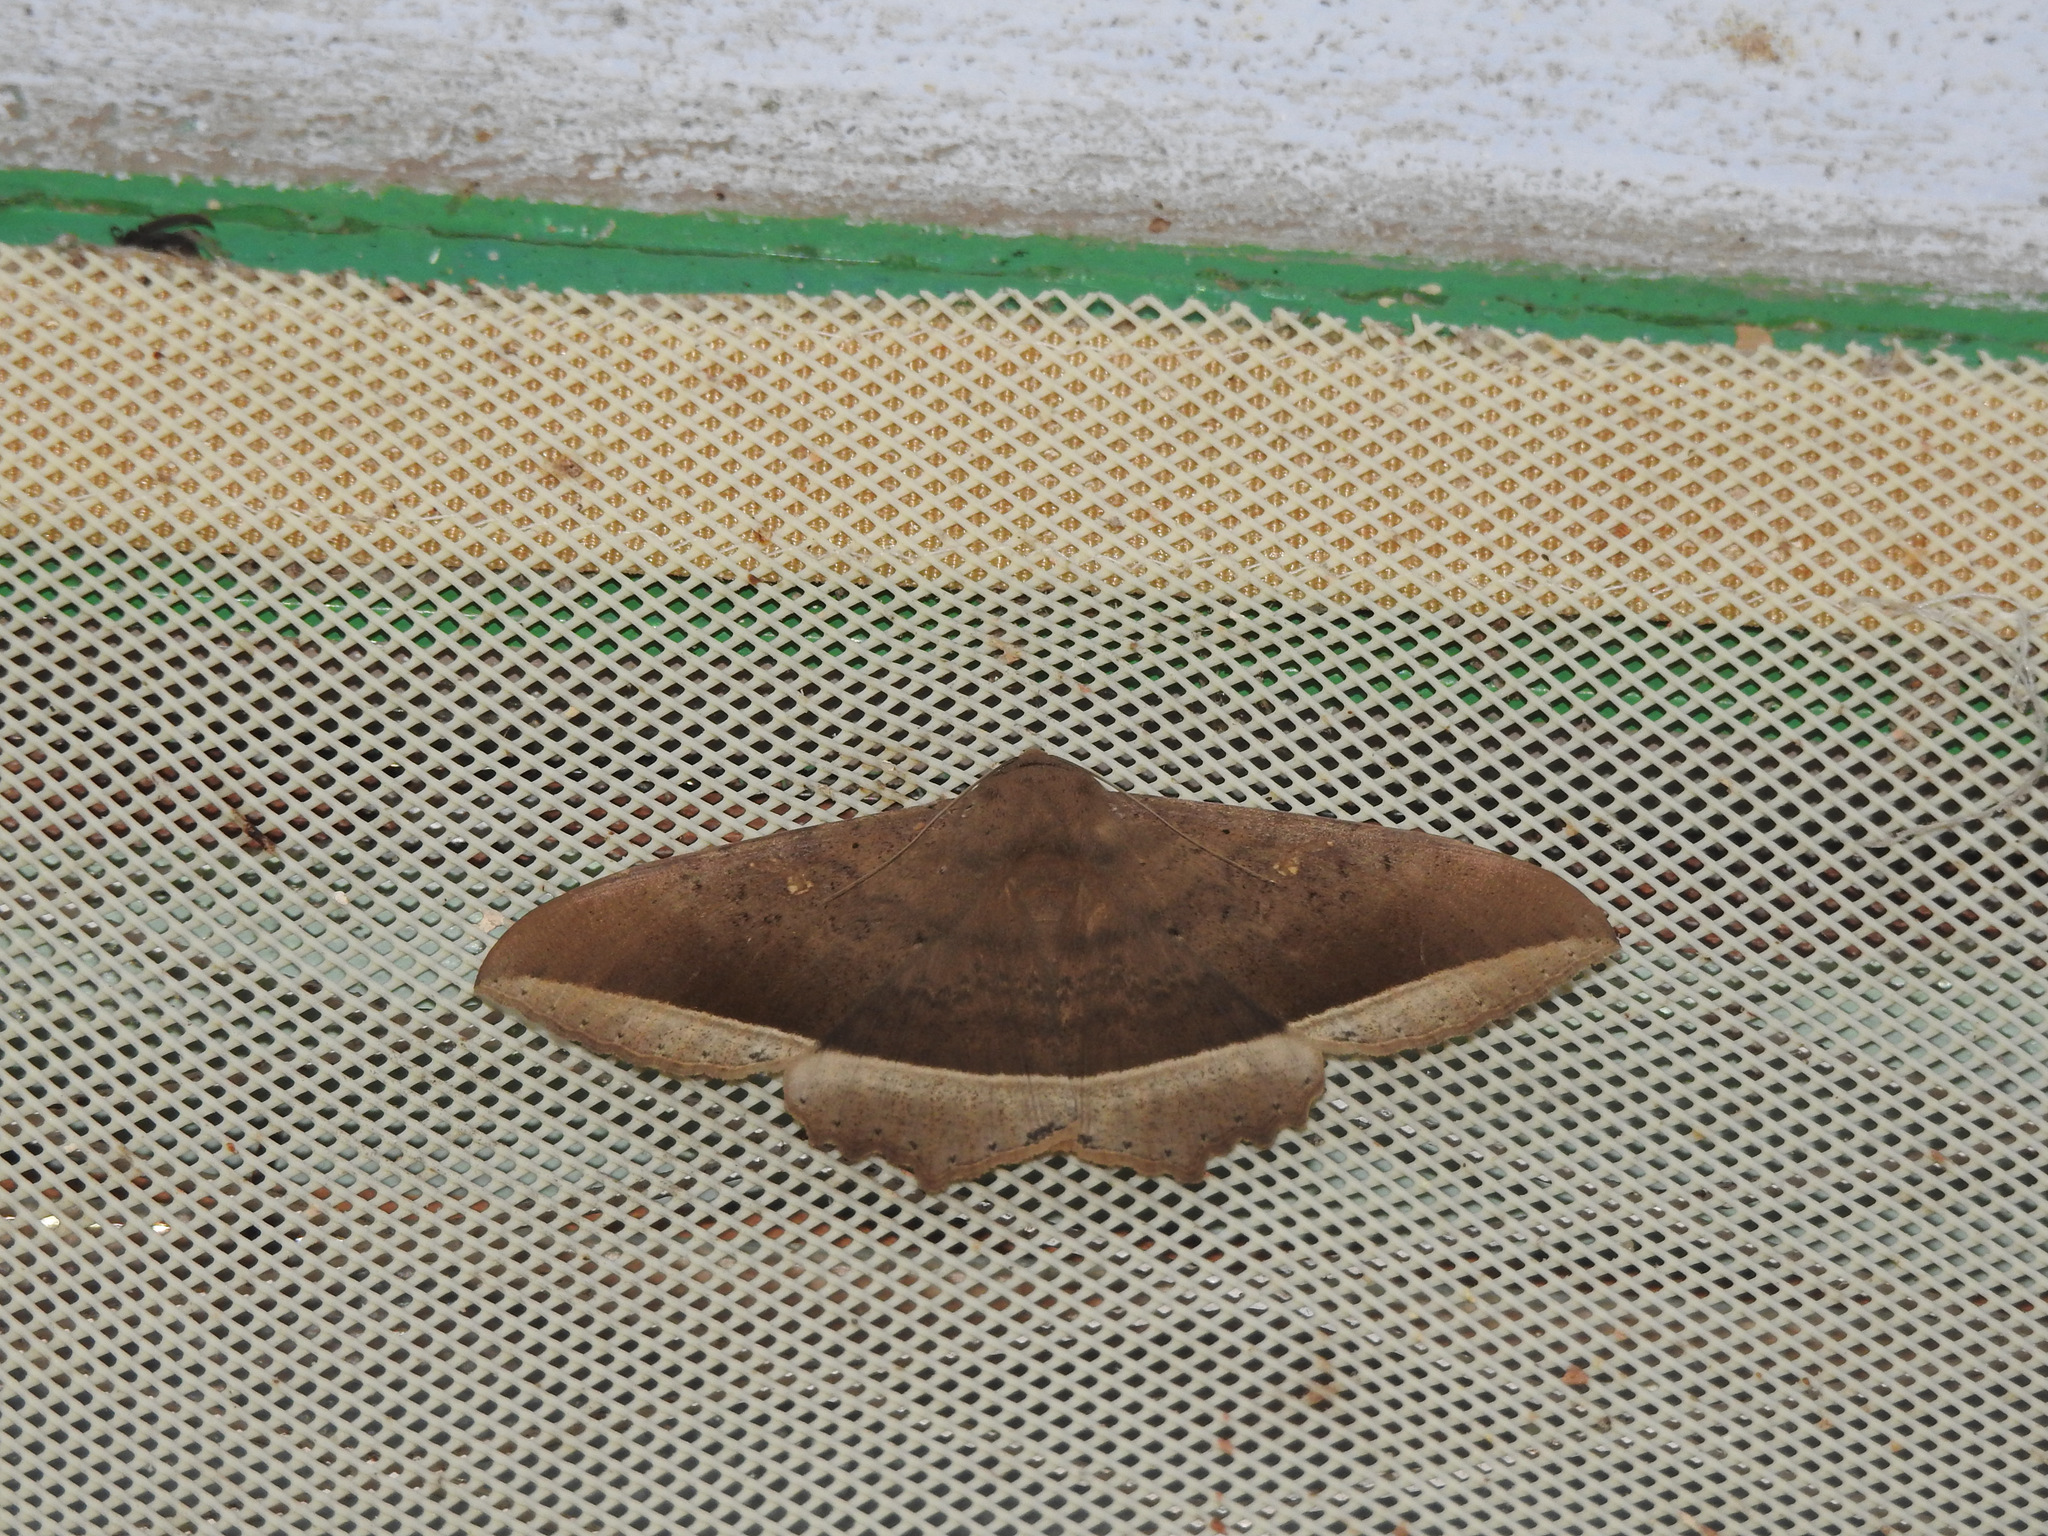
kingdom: Animalia
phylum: Arthropoda
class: Insecta
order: Lepidoptera
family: Erebidae
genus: Hulodes
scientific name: Hulodes caranea
